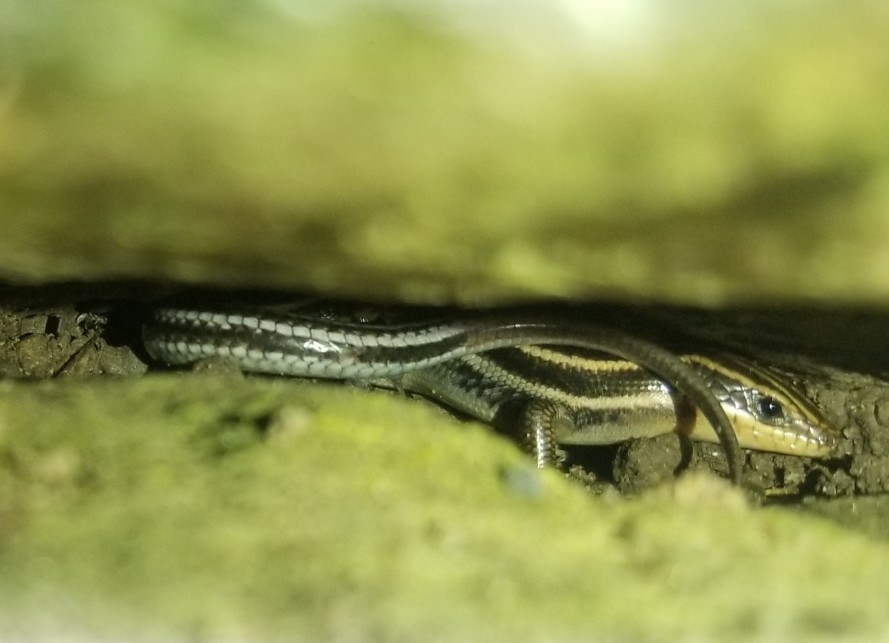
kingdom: Animalia
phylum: Chordata
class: Squamata
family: Scincidae
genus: Plestiodon
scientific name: Plestiodon fasciatus
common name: Five-lined skink
